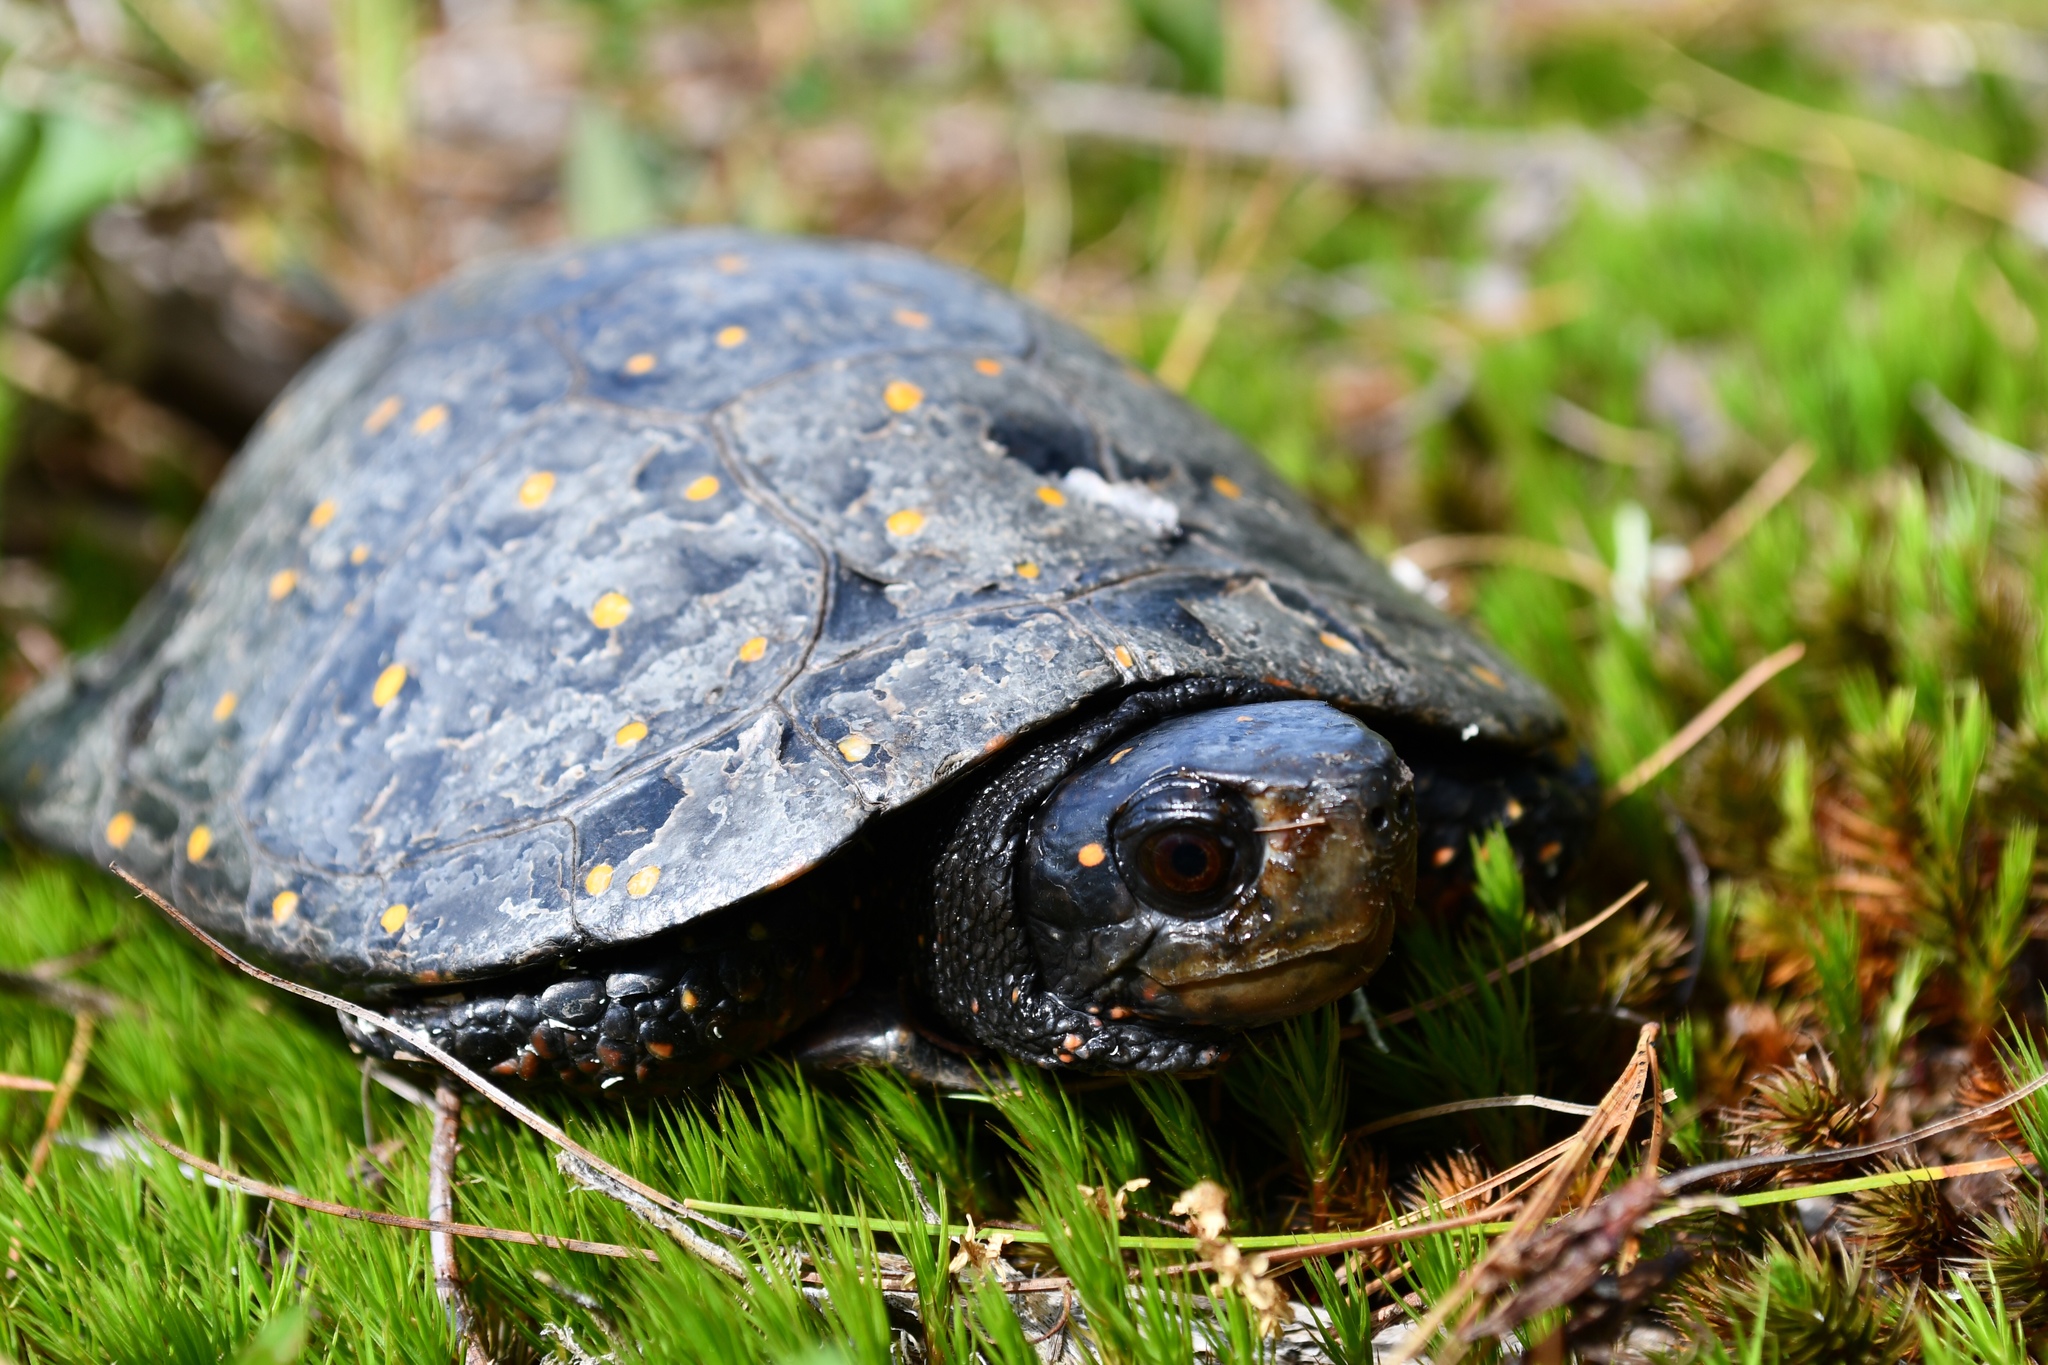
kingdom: Animalia
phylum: Chordata
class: Testudines
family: Emydidae
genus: Clemmys
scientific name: Clemmys guttata
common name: Spotted turtle
